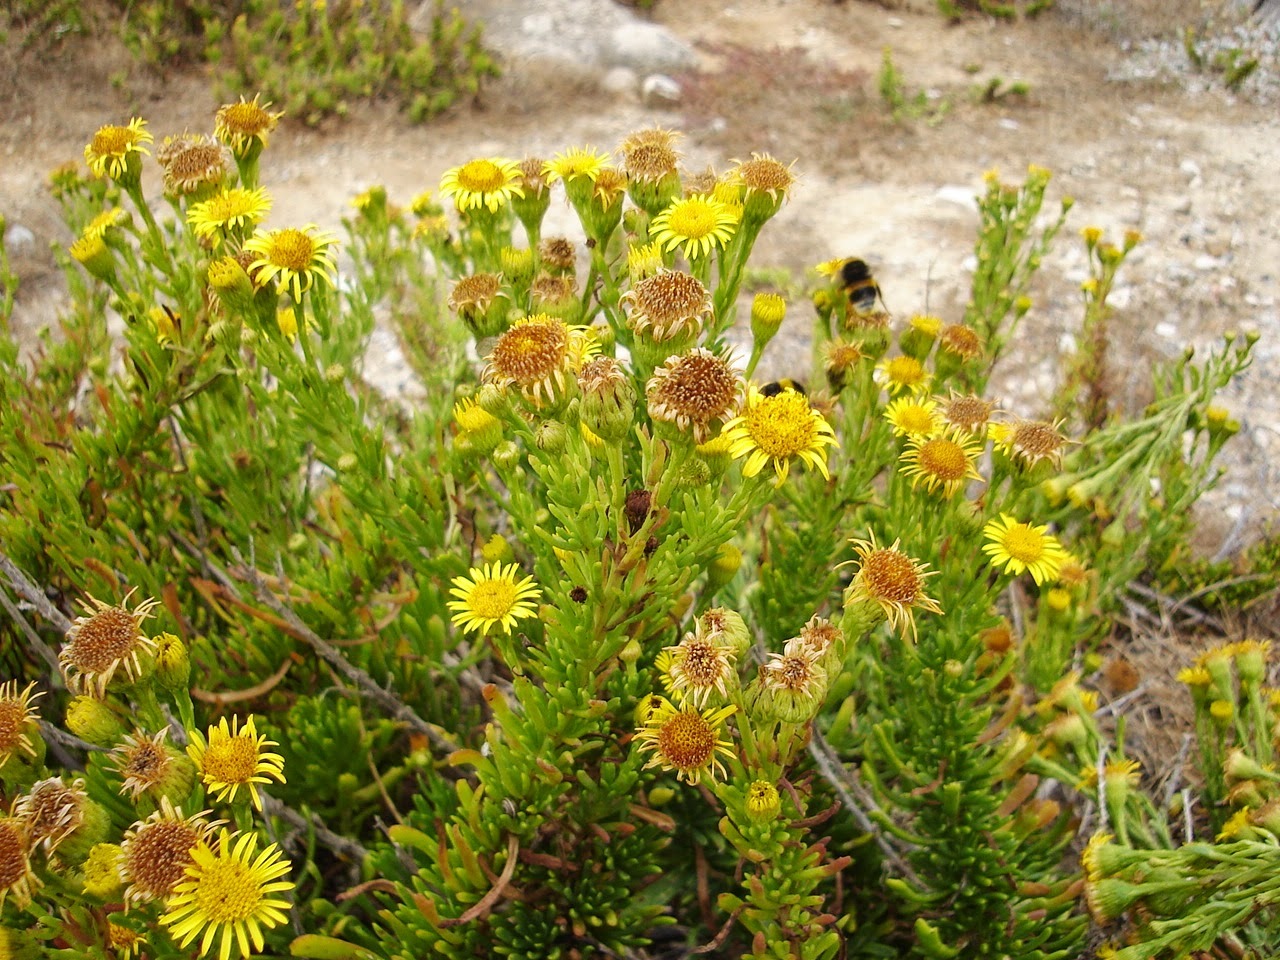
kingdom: Plantae
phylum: Tracheophyta
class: Magnoliopsida
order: Asterales
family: Asteraceae
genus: Limbarda
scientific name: Limbarda crithmoides
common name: Golden samphire
